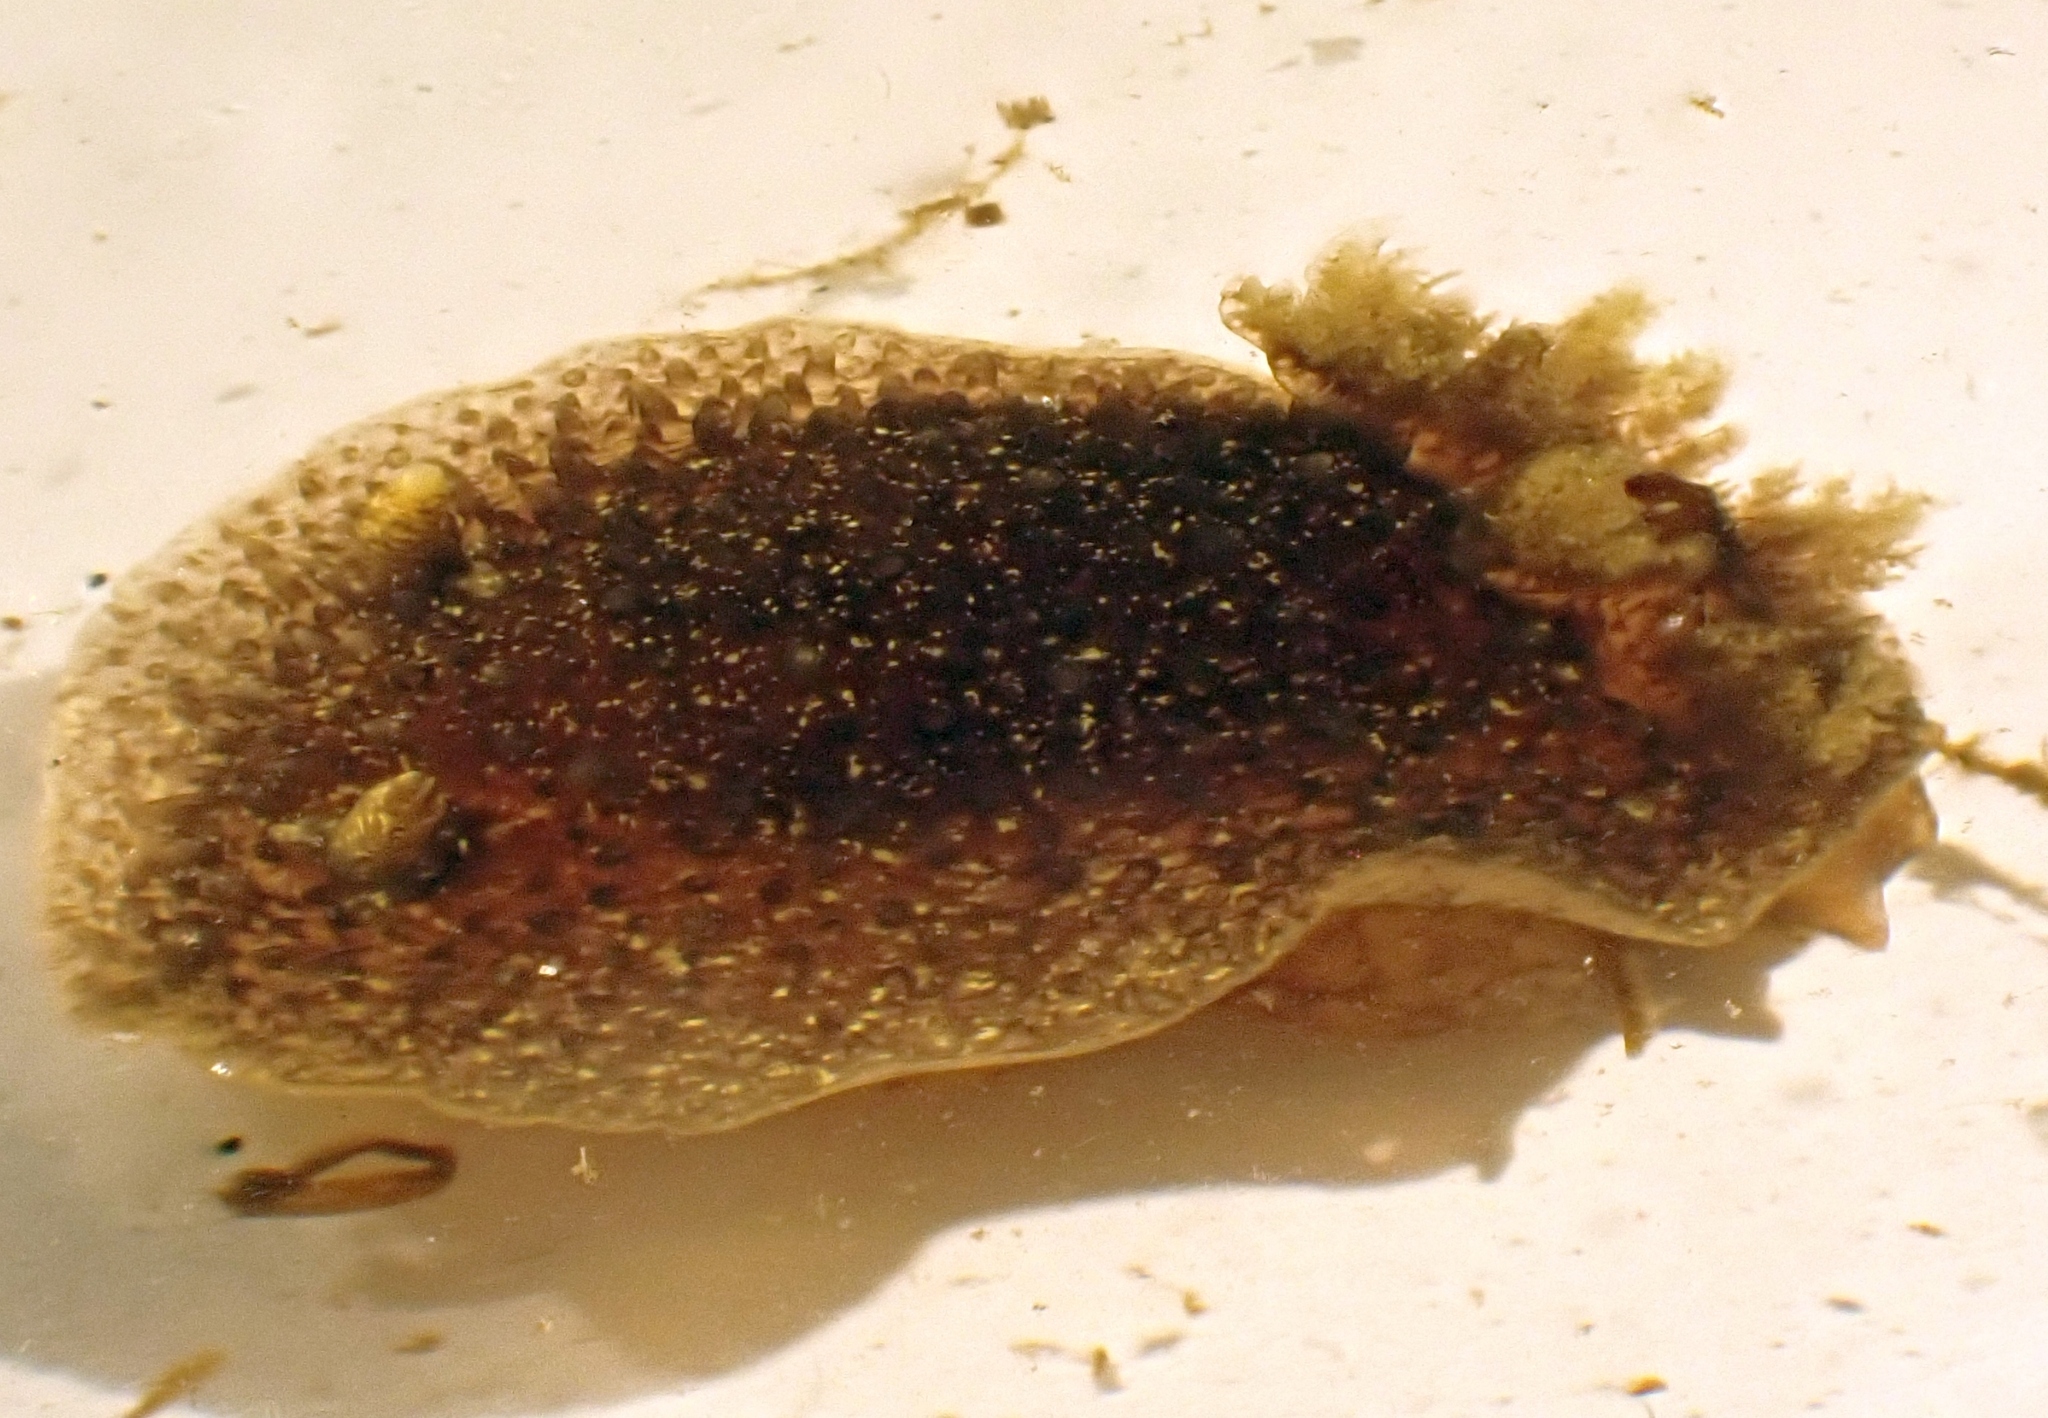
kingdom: Animalia
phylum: Mollusca
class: Gastropoda
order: Nudibranchia
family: Onchidorididae
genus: Acanthodoris
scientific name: Acanthodoris pilosa
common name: Hairy spiny doris
